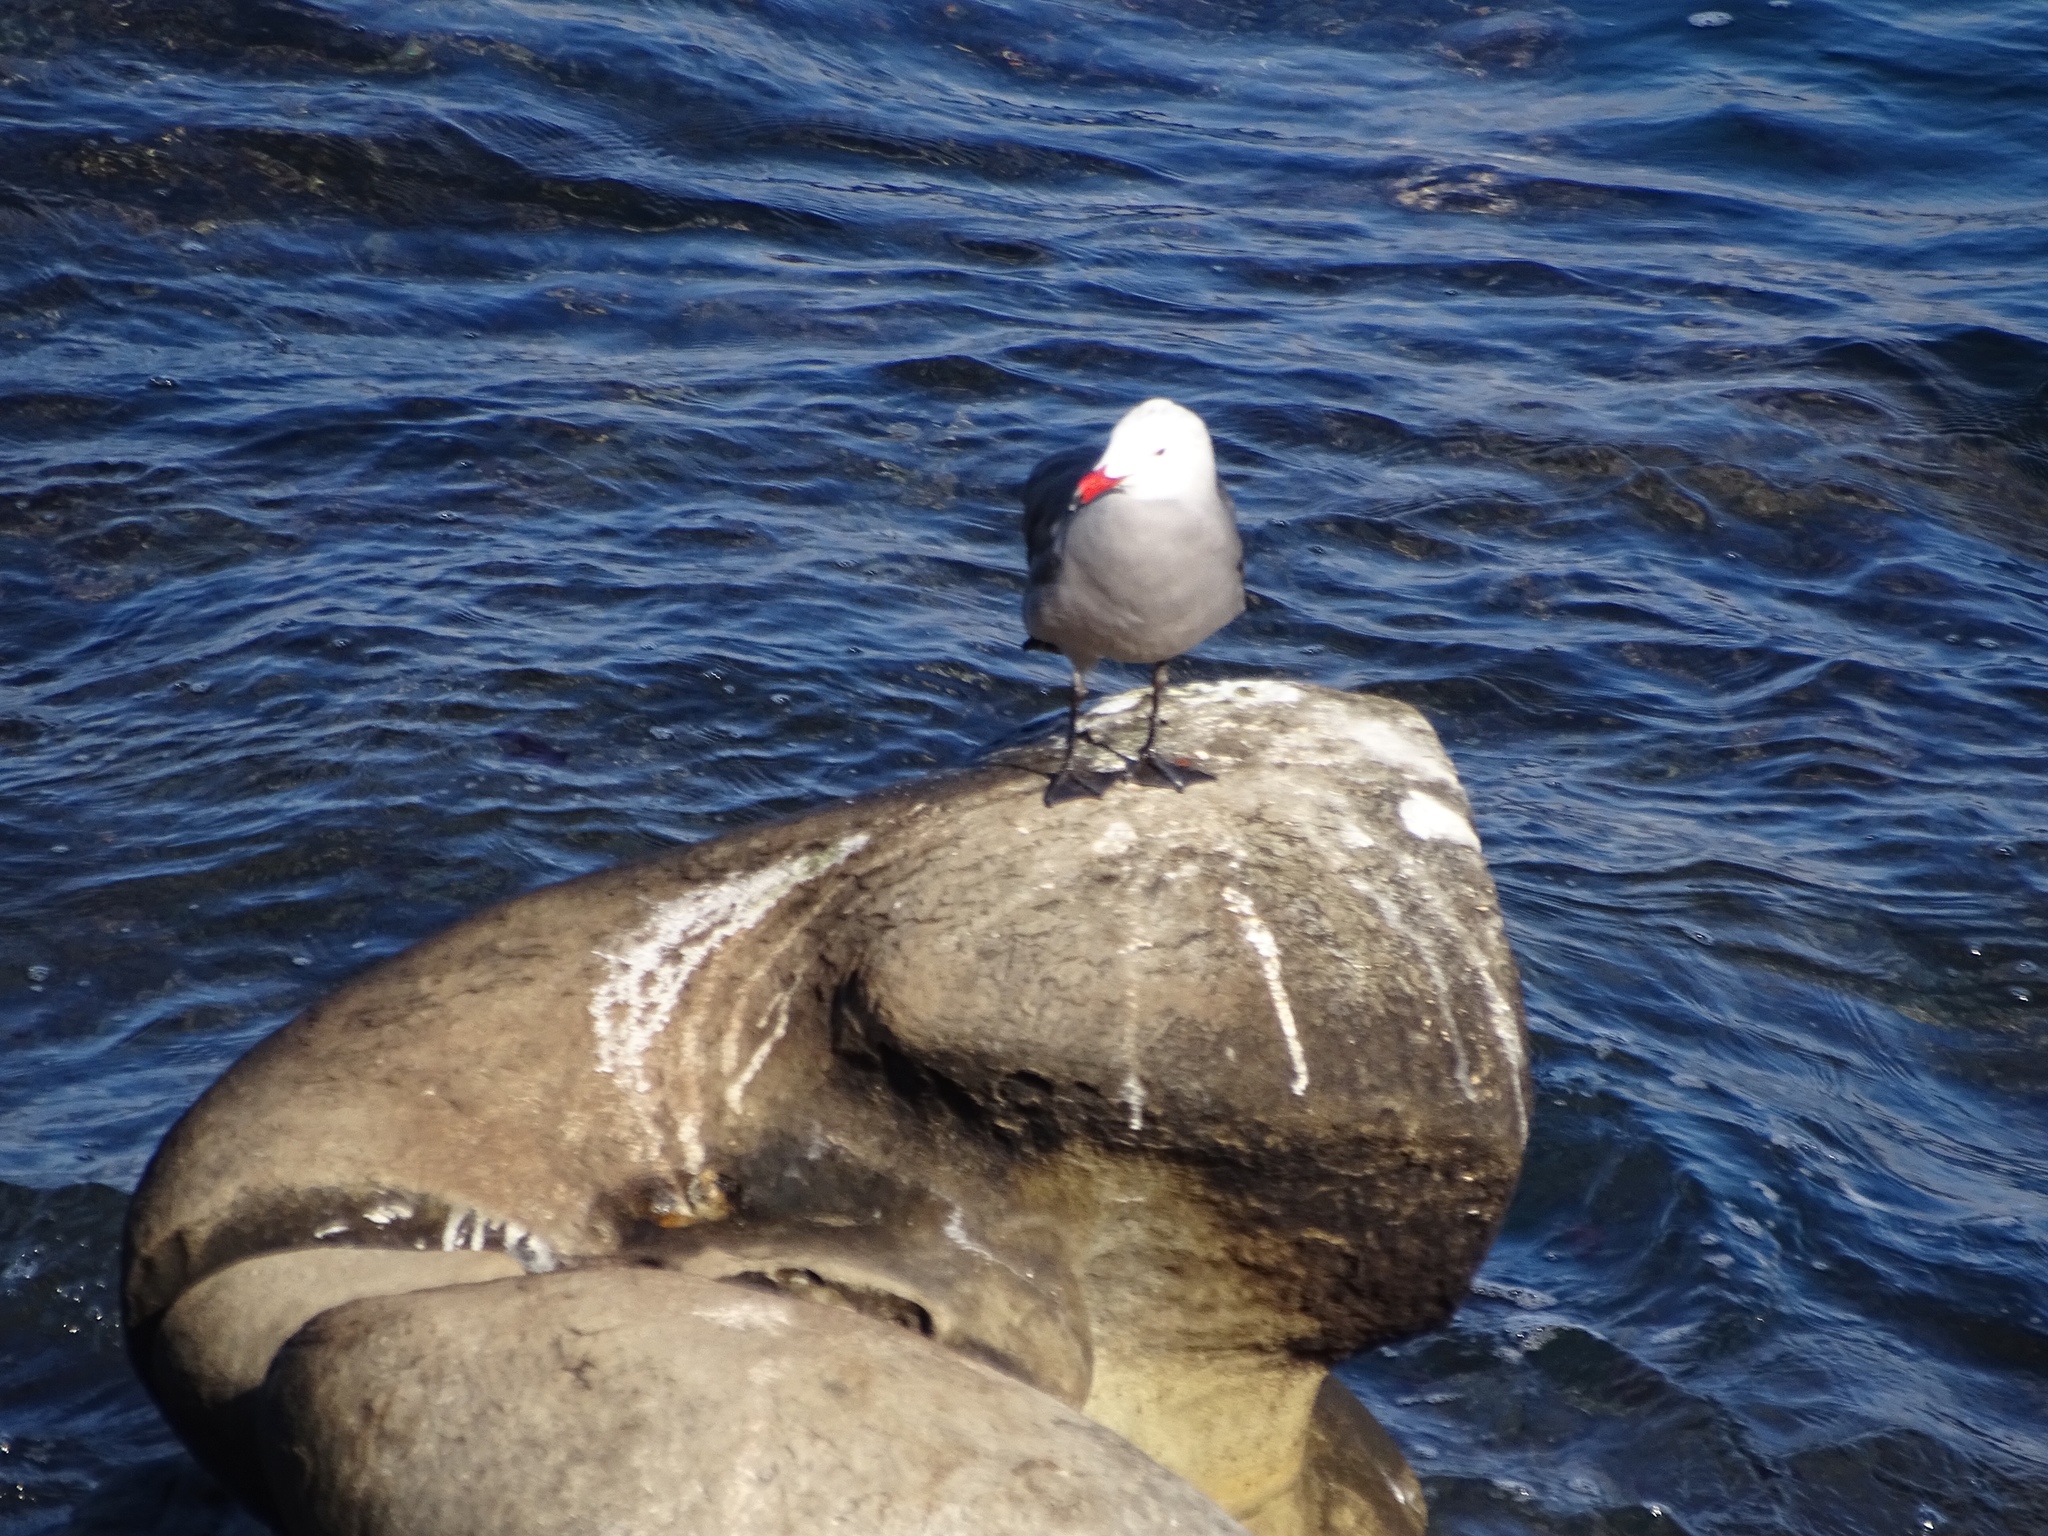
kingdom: Animalia
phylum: Chordata
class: Aves
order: Charadriiformes
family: Laridae
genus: Larus
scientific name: Larus heermanni
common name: Heermann's gull
